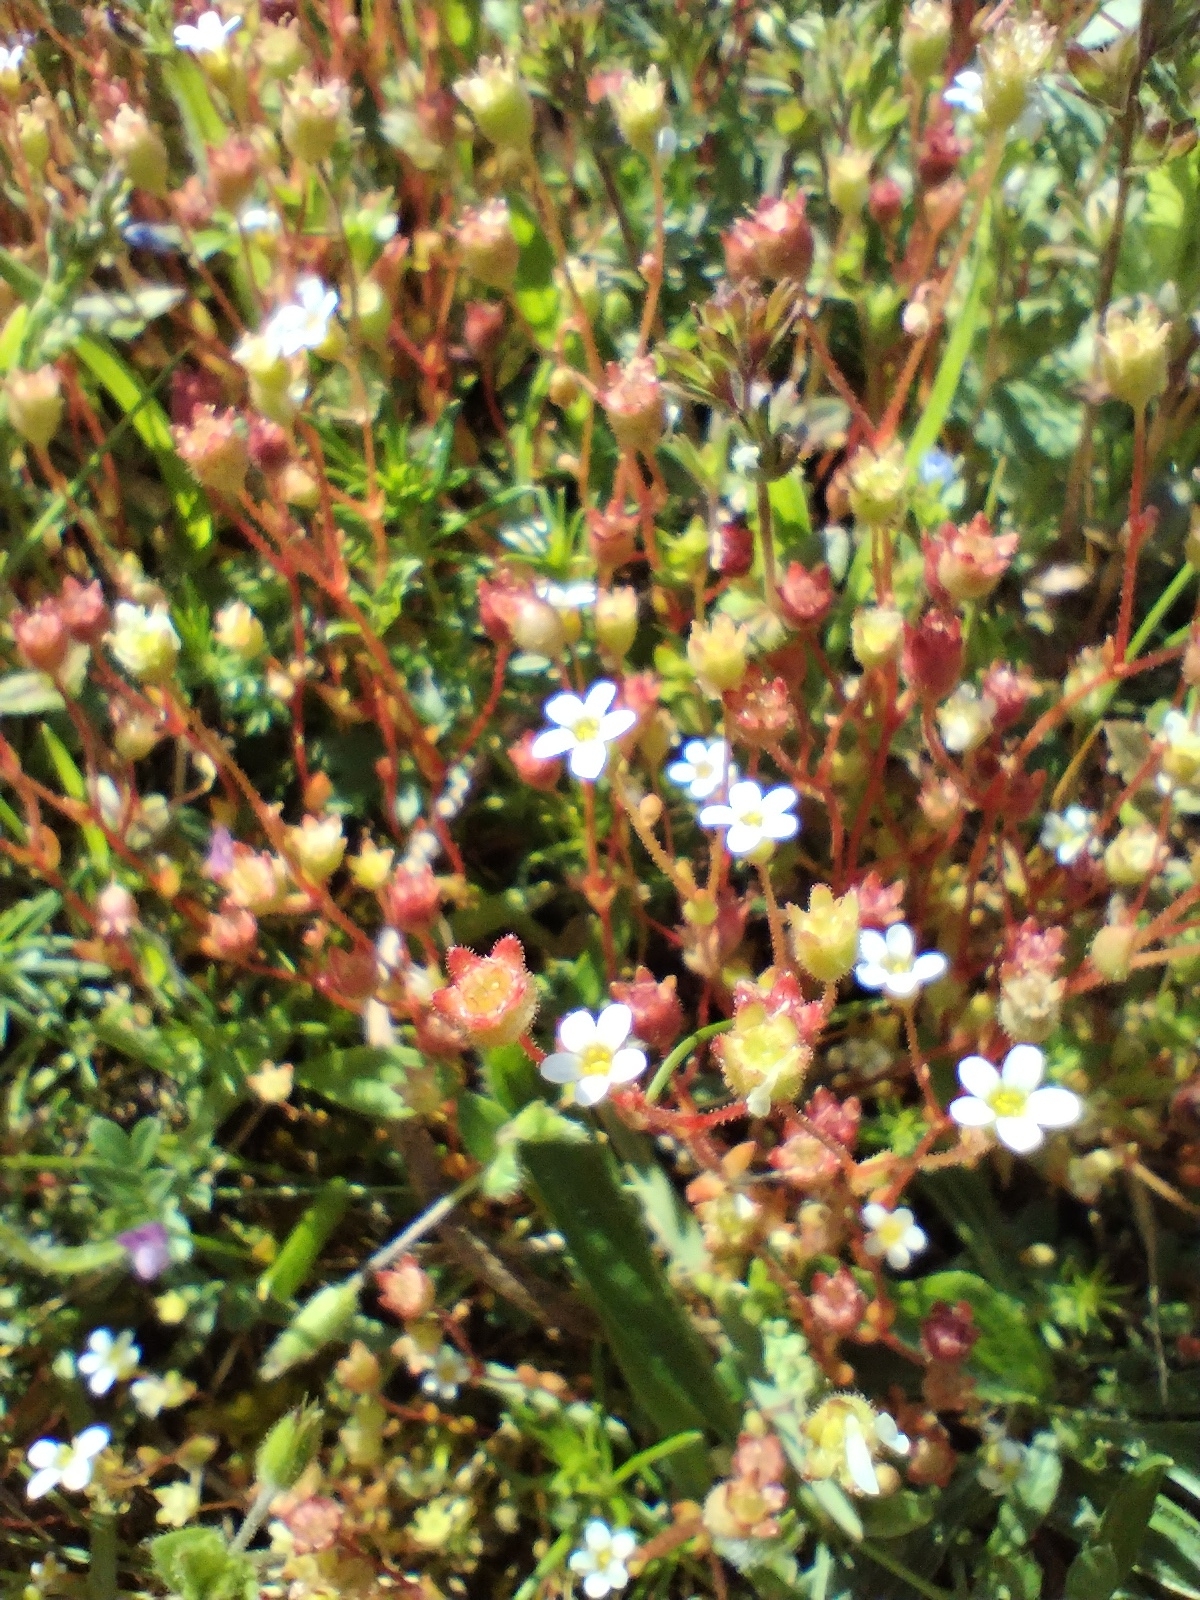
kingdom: Plantae
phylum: Tracheophyta
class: Magnoliopsida
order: Saxifragales
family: Saxifragaceae
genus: Saxifraga
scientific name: Saxifraga tridactylites
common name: Rue-leaved saxifrage
